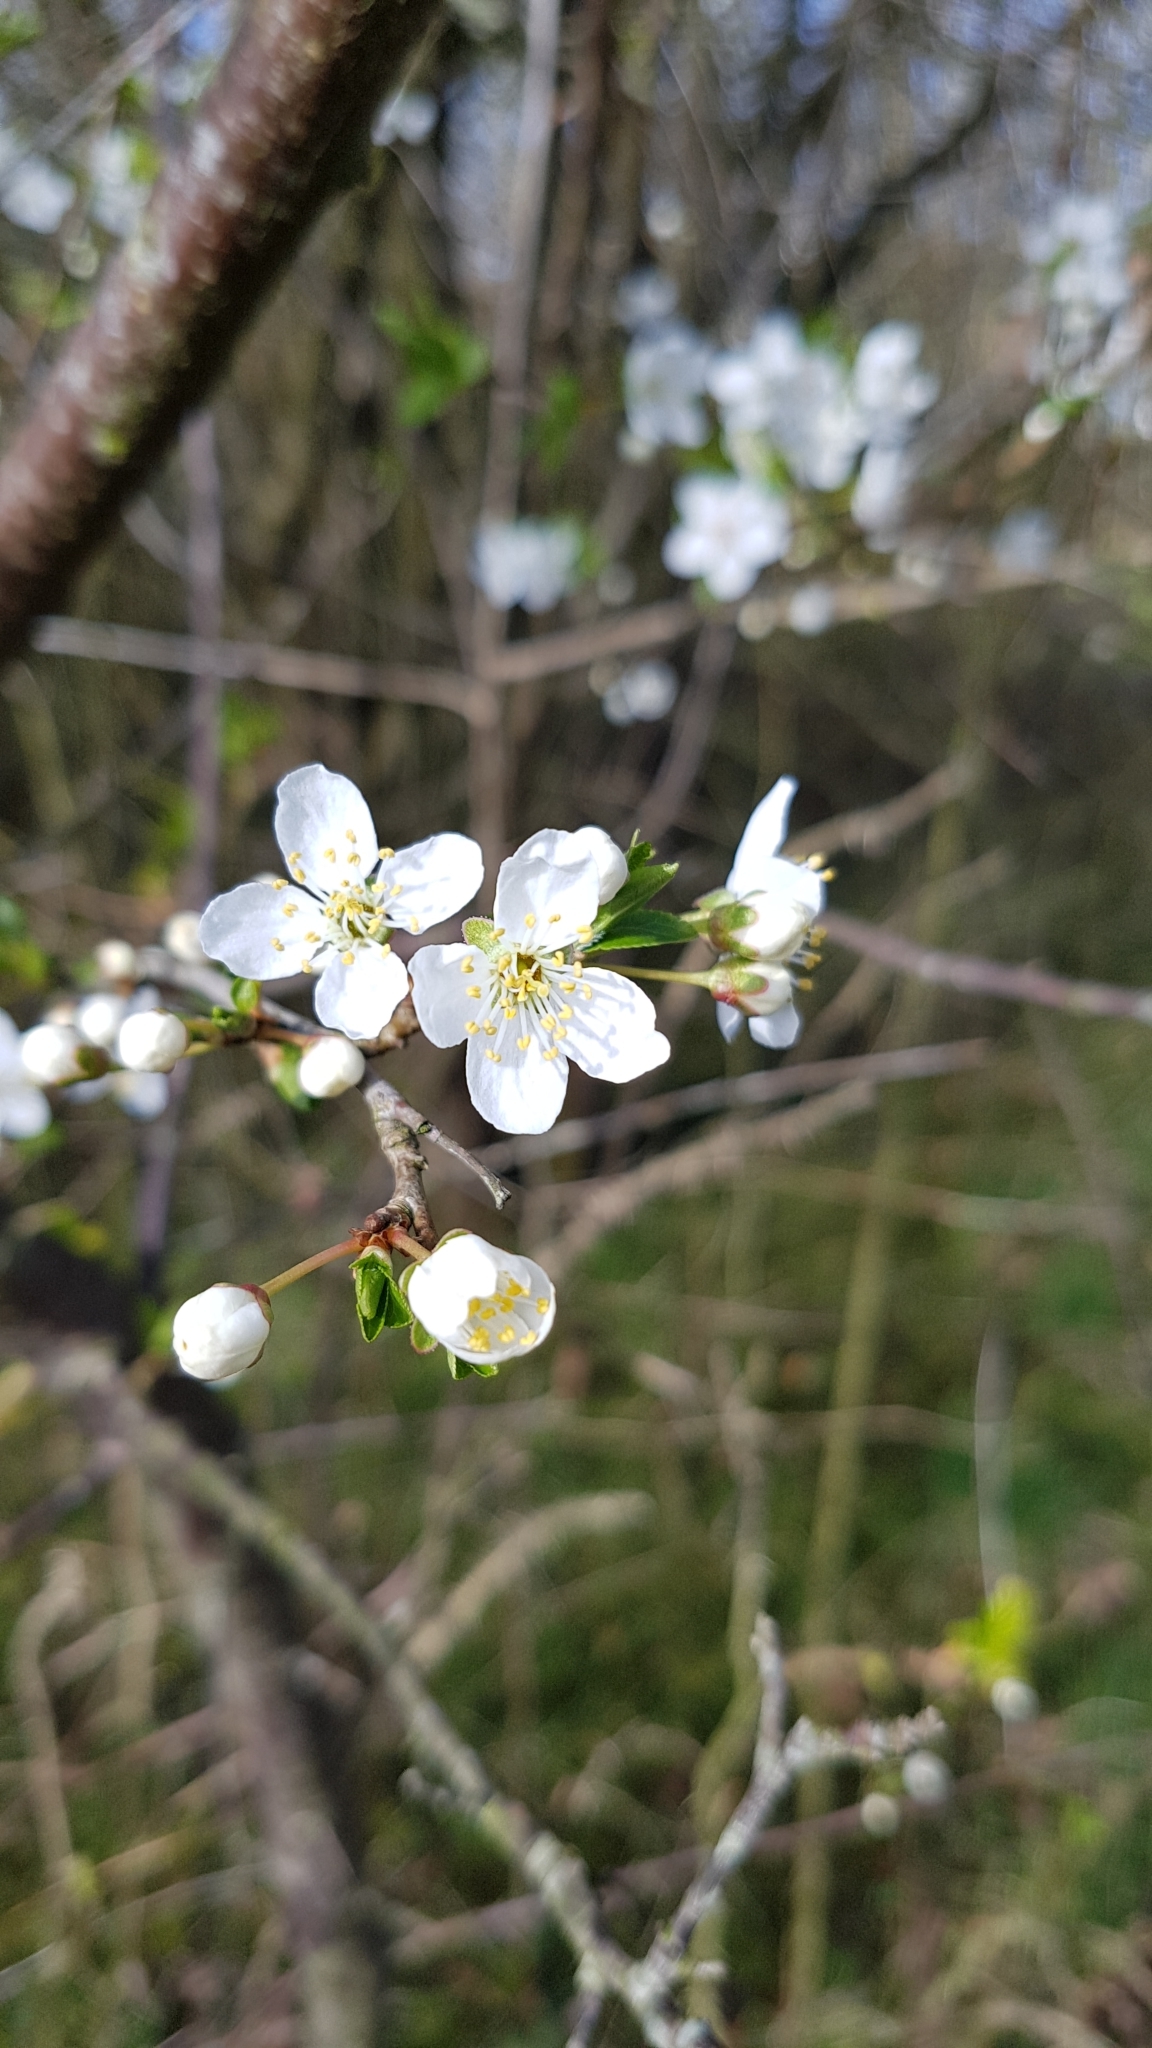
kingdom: Plantae
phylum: Tracheophyta
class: Magnoliopsida
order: Rosales
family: Rosaceae
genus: Prunus
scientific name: Prunus cerasifera
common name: Cherry plum
